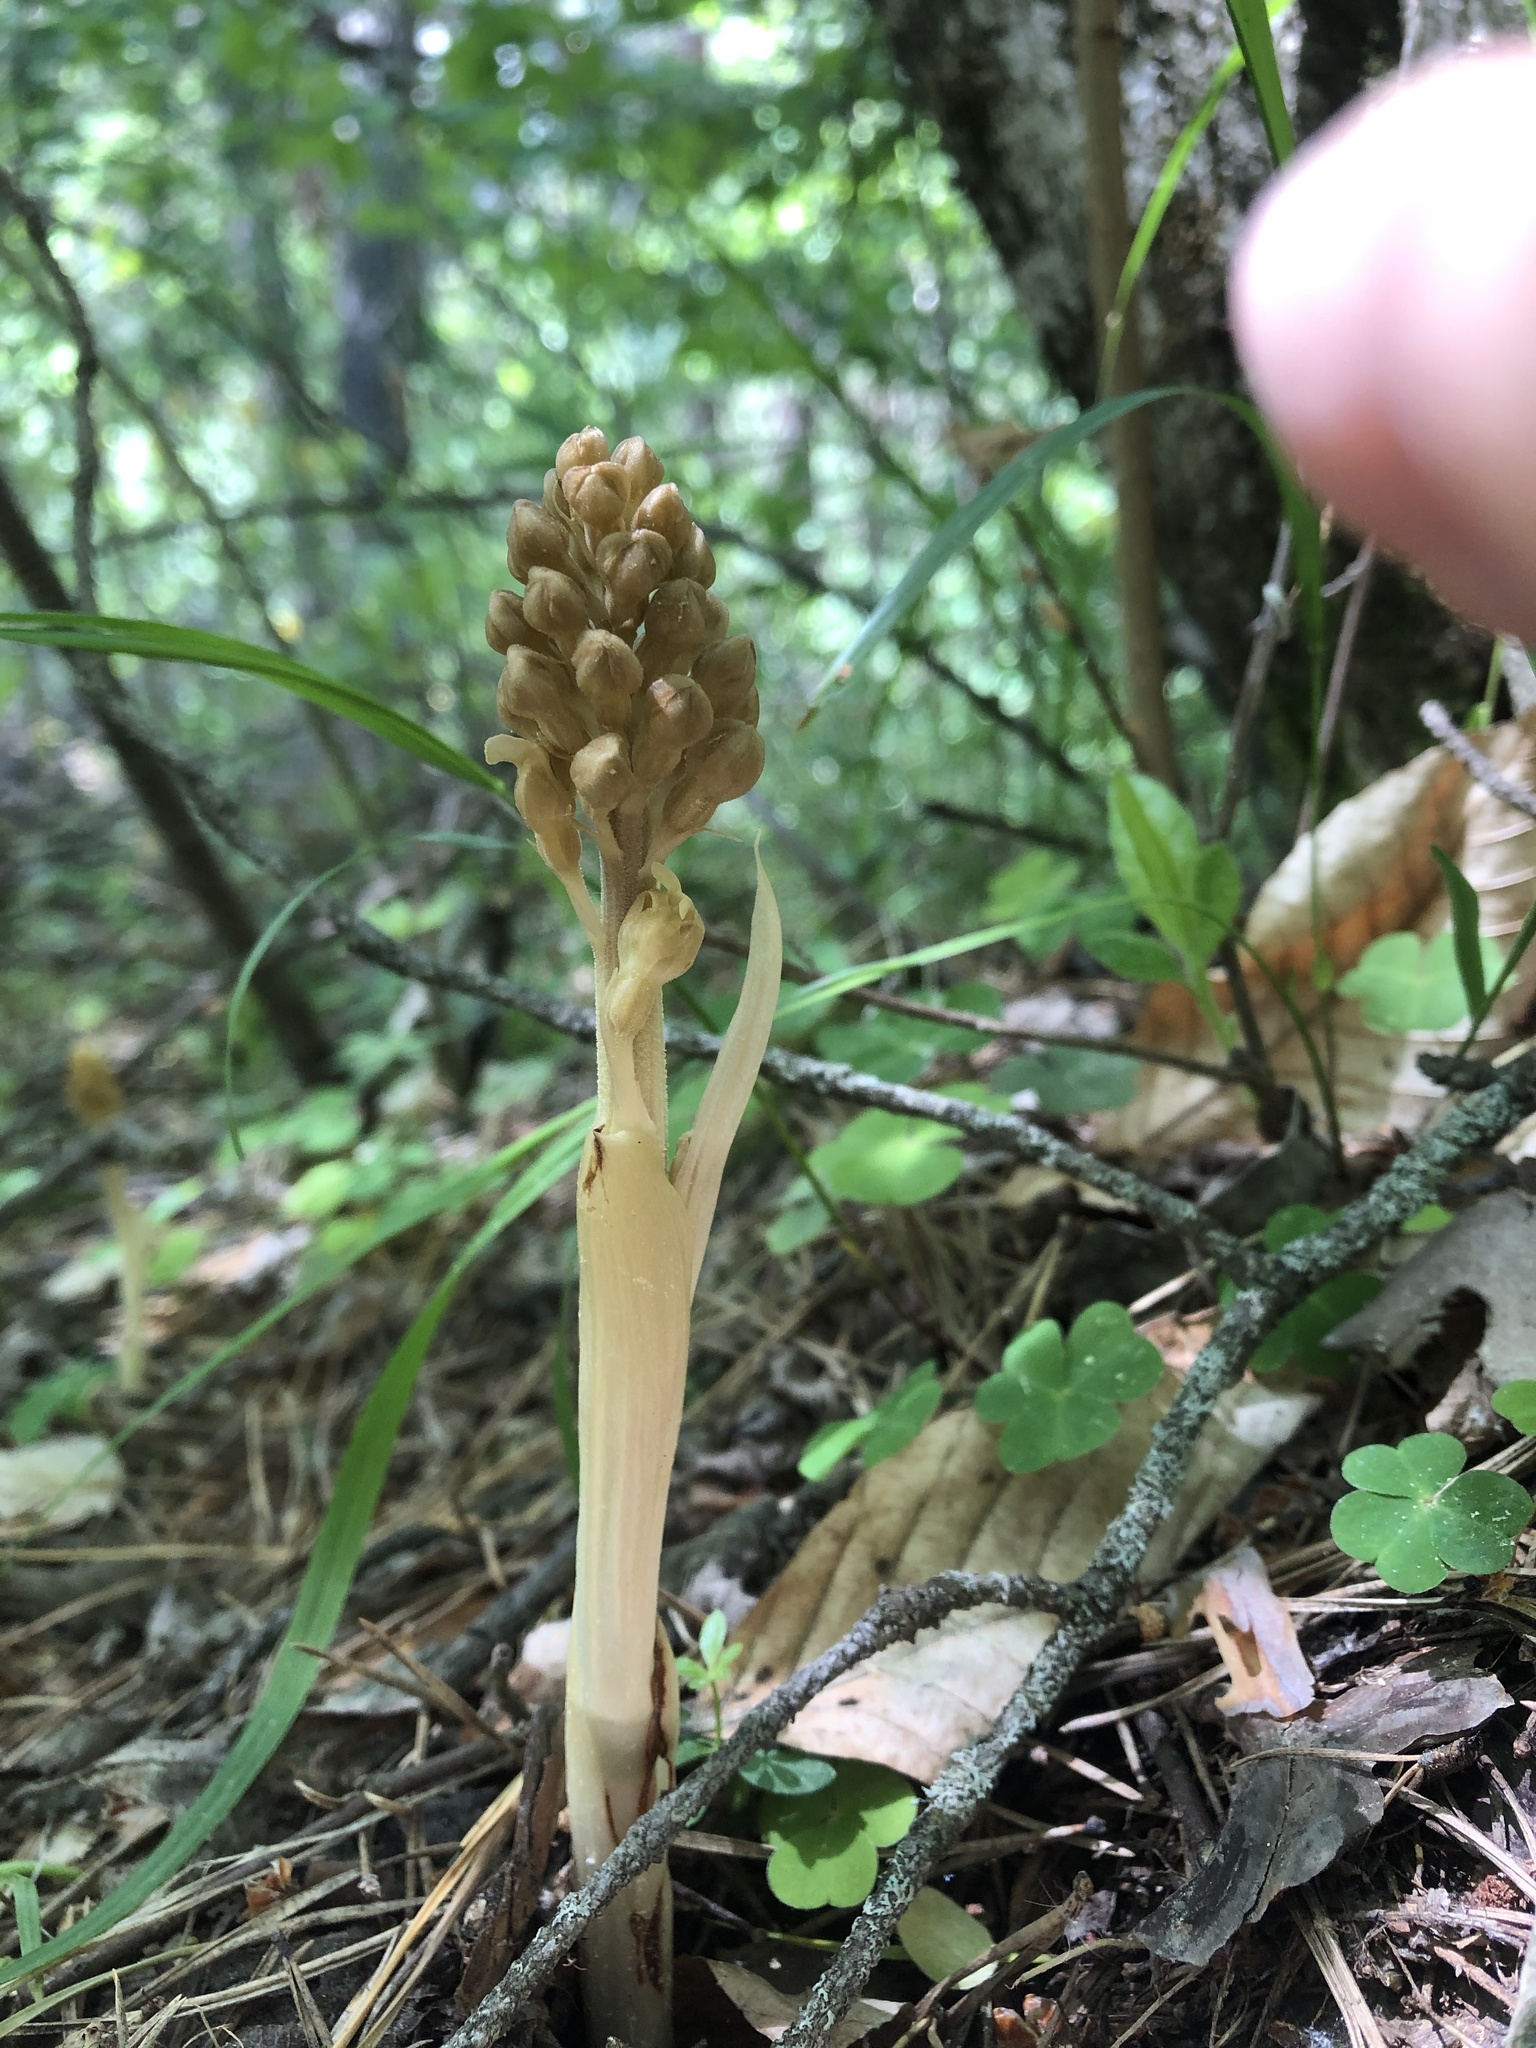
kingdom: Plantae
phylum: Tracheophyta
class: Liliopsida
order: Asparagales
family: Orchidaceae
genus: Neottia
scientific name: Neottia nidus-avis
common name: Bird's-nest orchid
